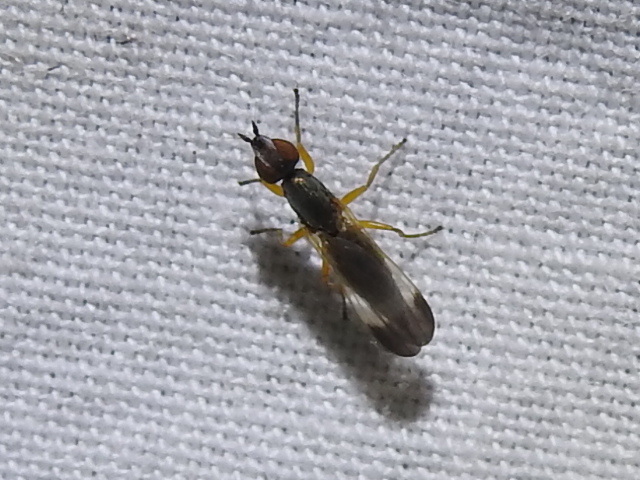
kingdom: Animalia
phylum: Arthropoda
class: Insecta
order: Diptera
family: Ulidiidae
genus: Eumetopiella
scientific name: Eumetopiella rufipes
